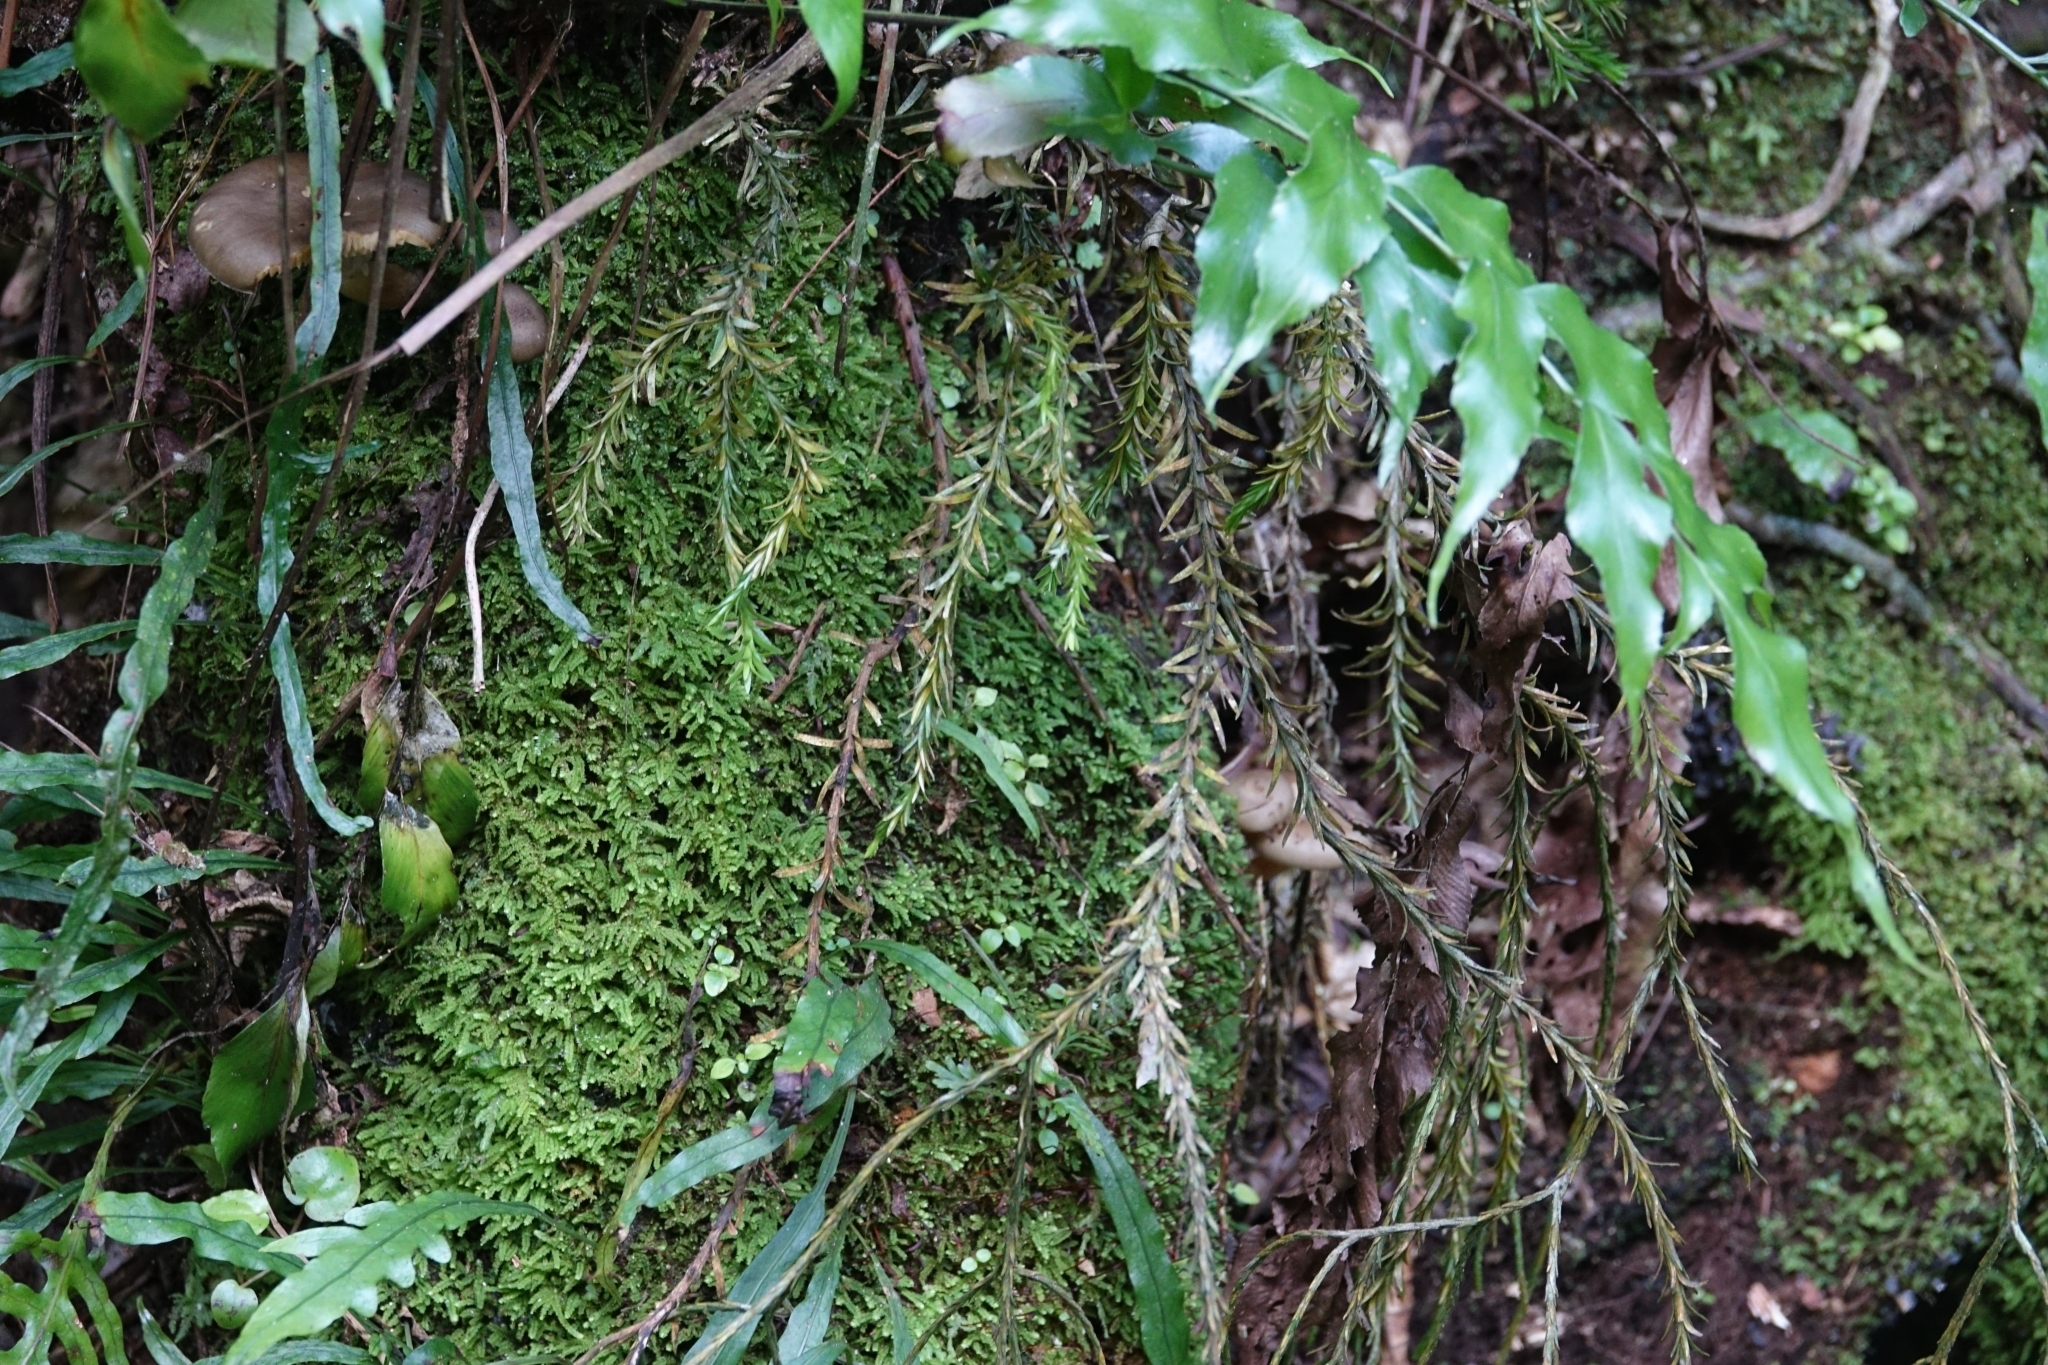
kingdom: Plantae
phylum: Tracheophyta
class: Lycopodiopsida
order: Lycopodiales
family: Lycopodiaceae
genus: Phlegmariurus
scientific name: Phlegmariurus billardierei
